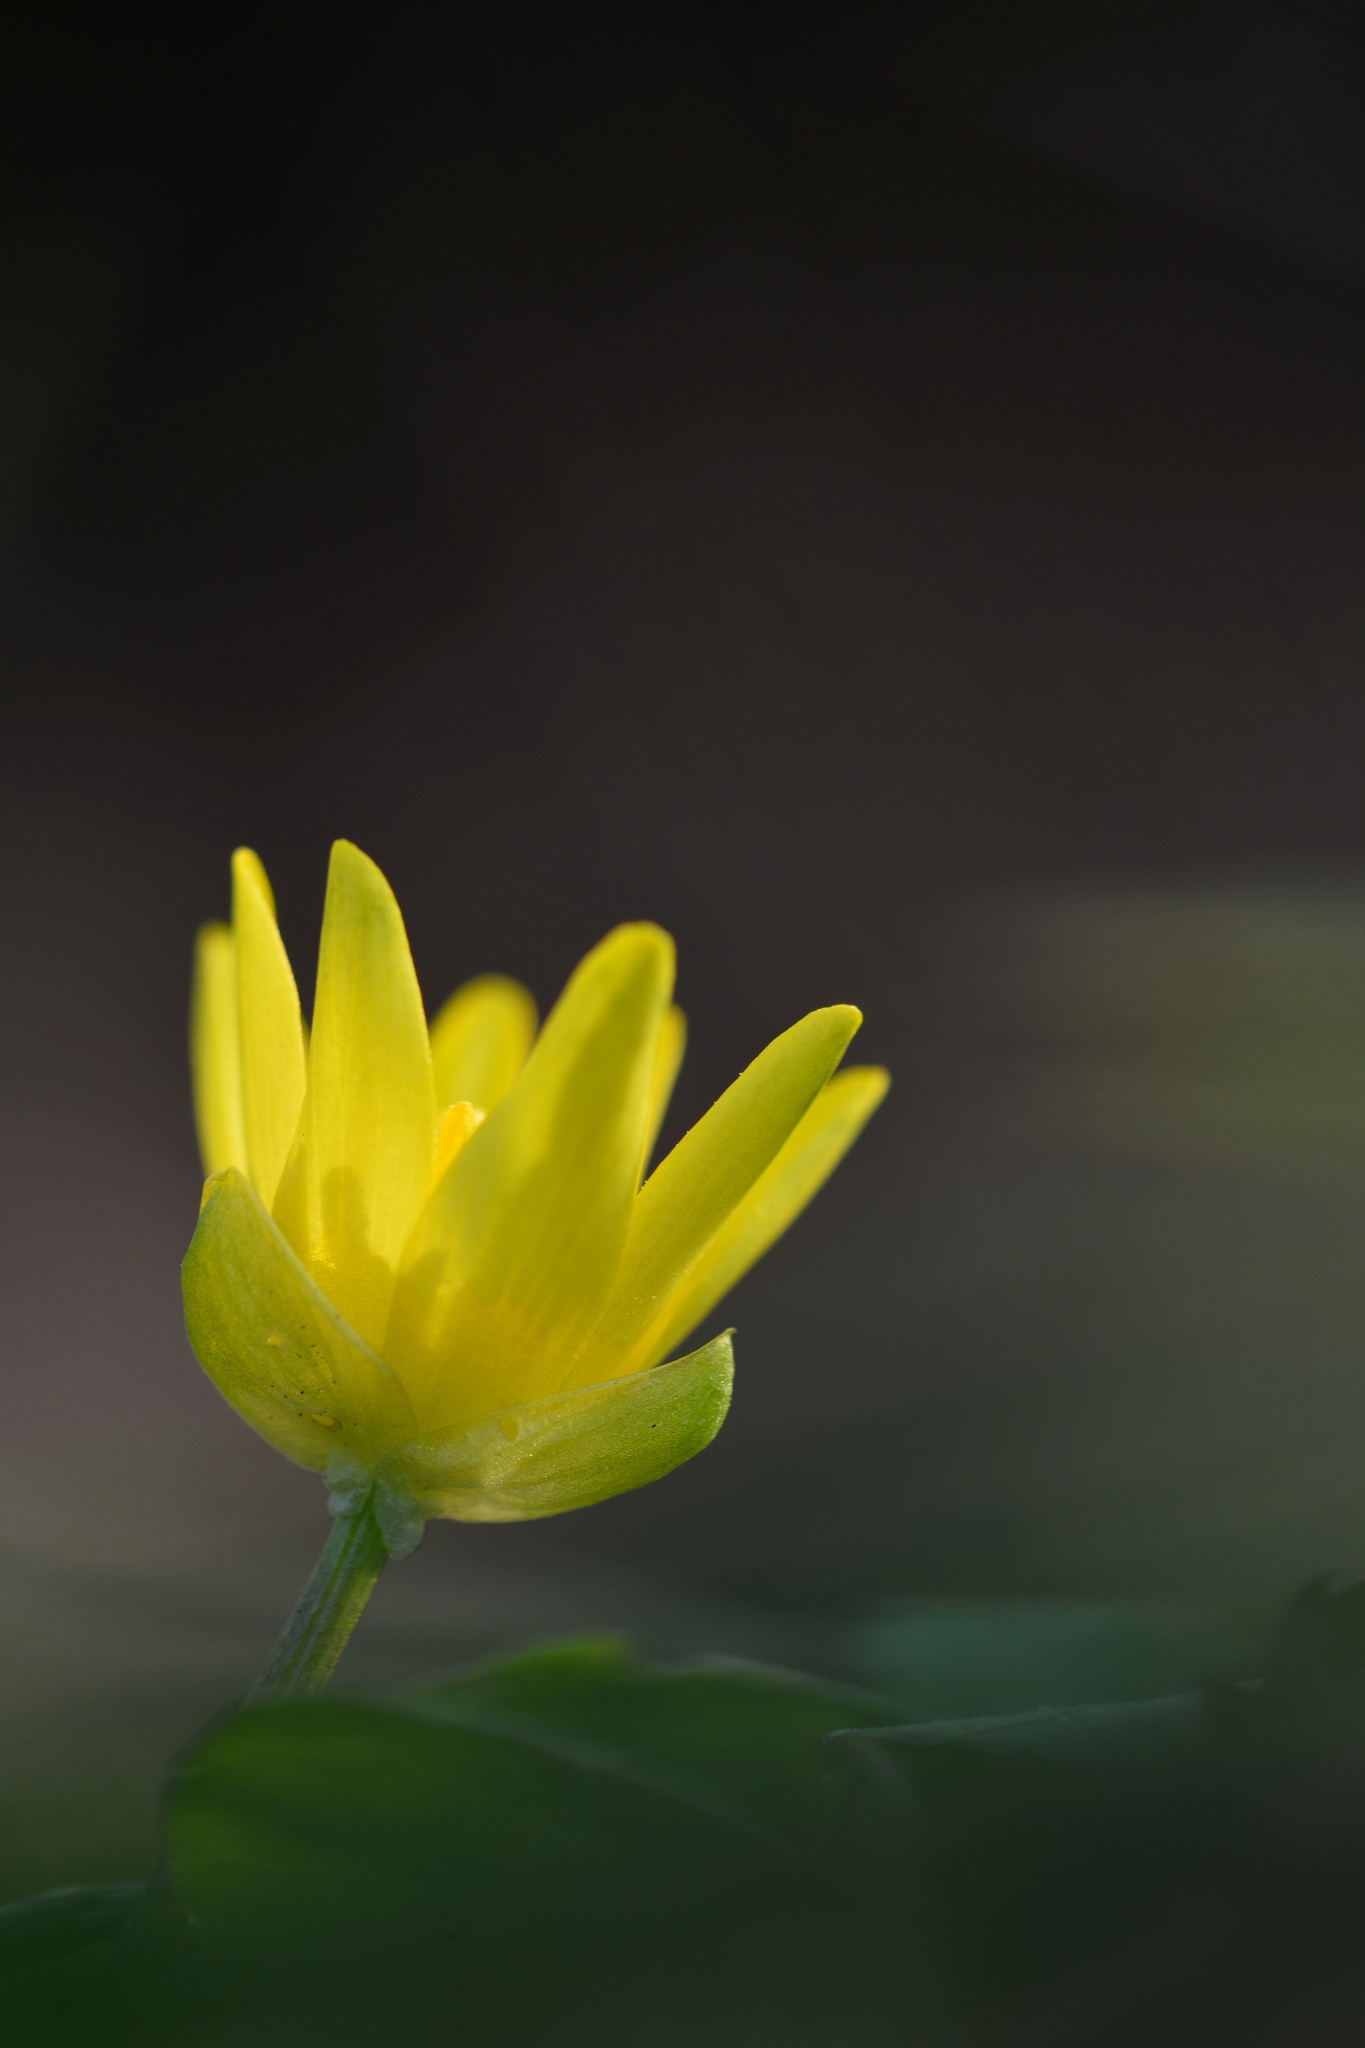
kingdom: Plantae
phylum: Tracheophyta
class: Magnoliopsida
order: Ranunculales
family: Ranunculaceae
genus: Ficaria
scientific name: Ficaria verna
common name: Lesser celandine
